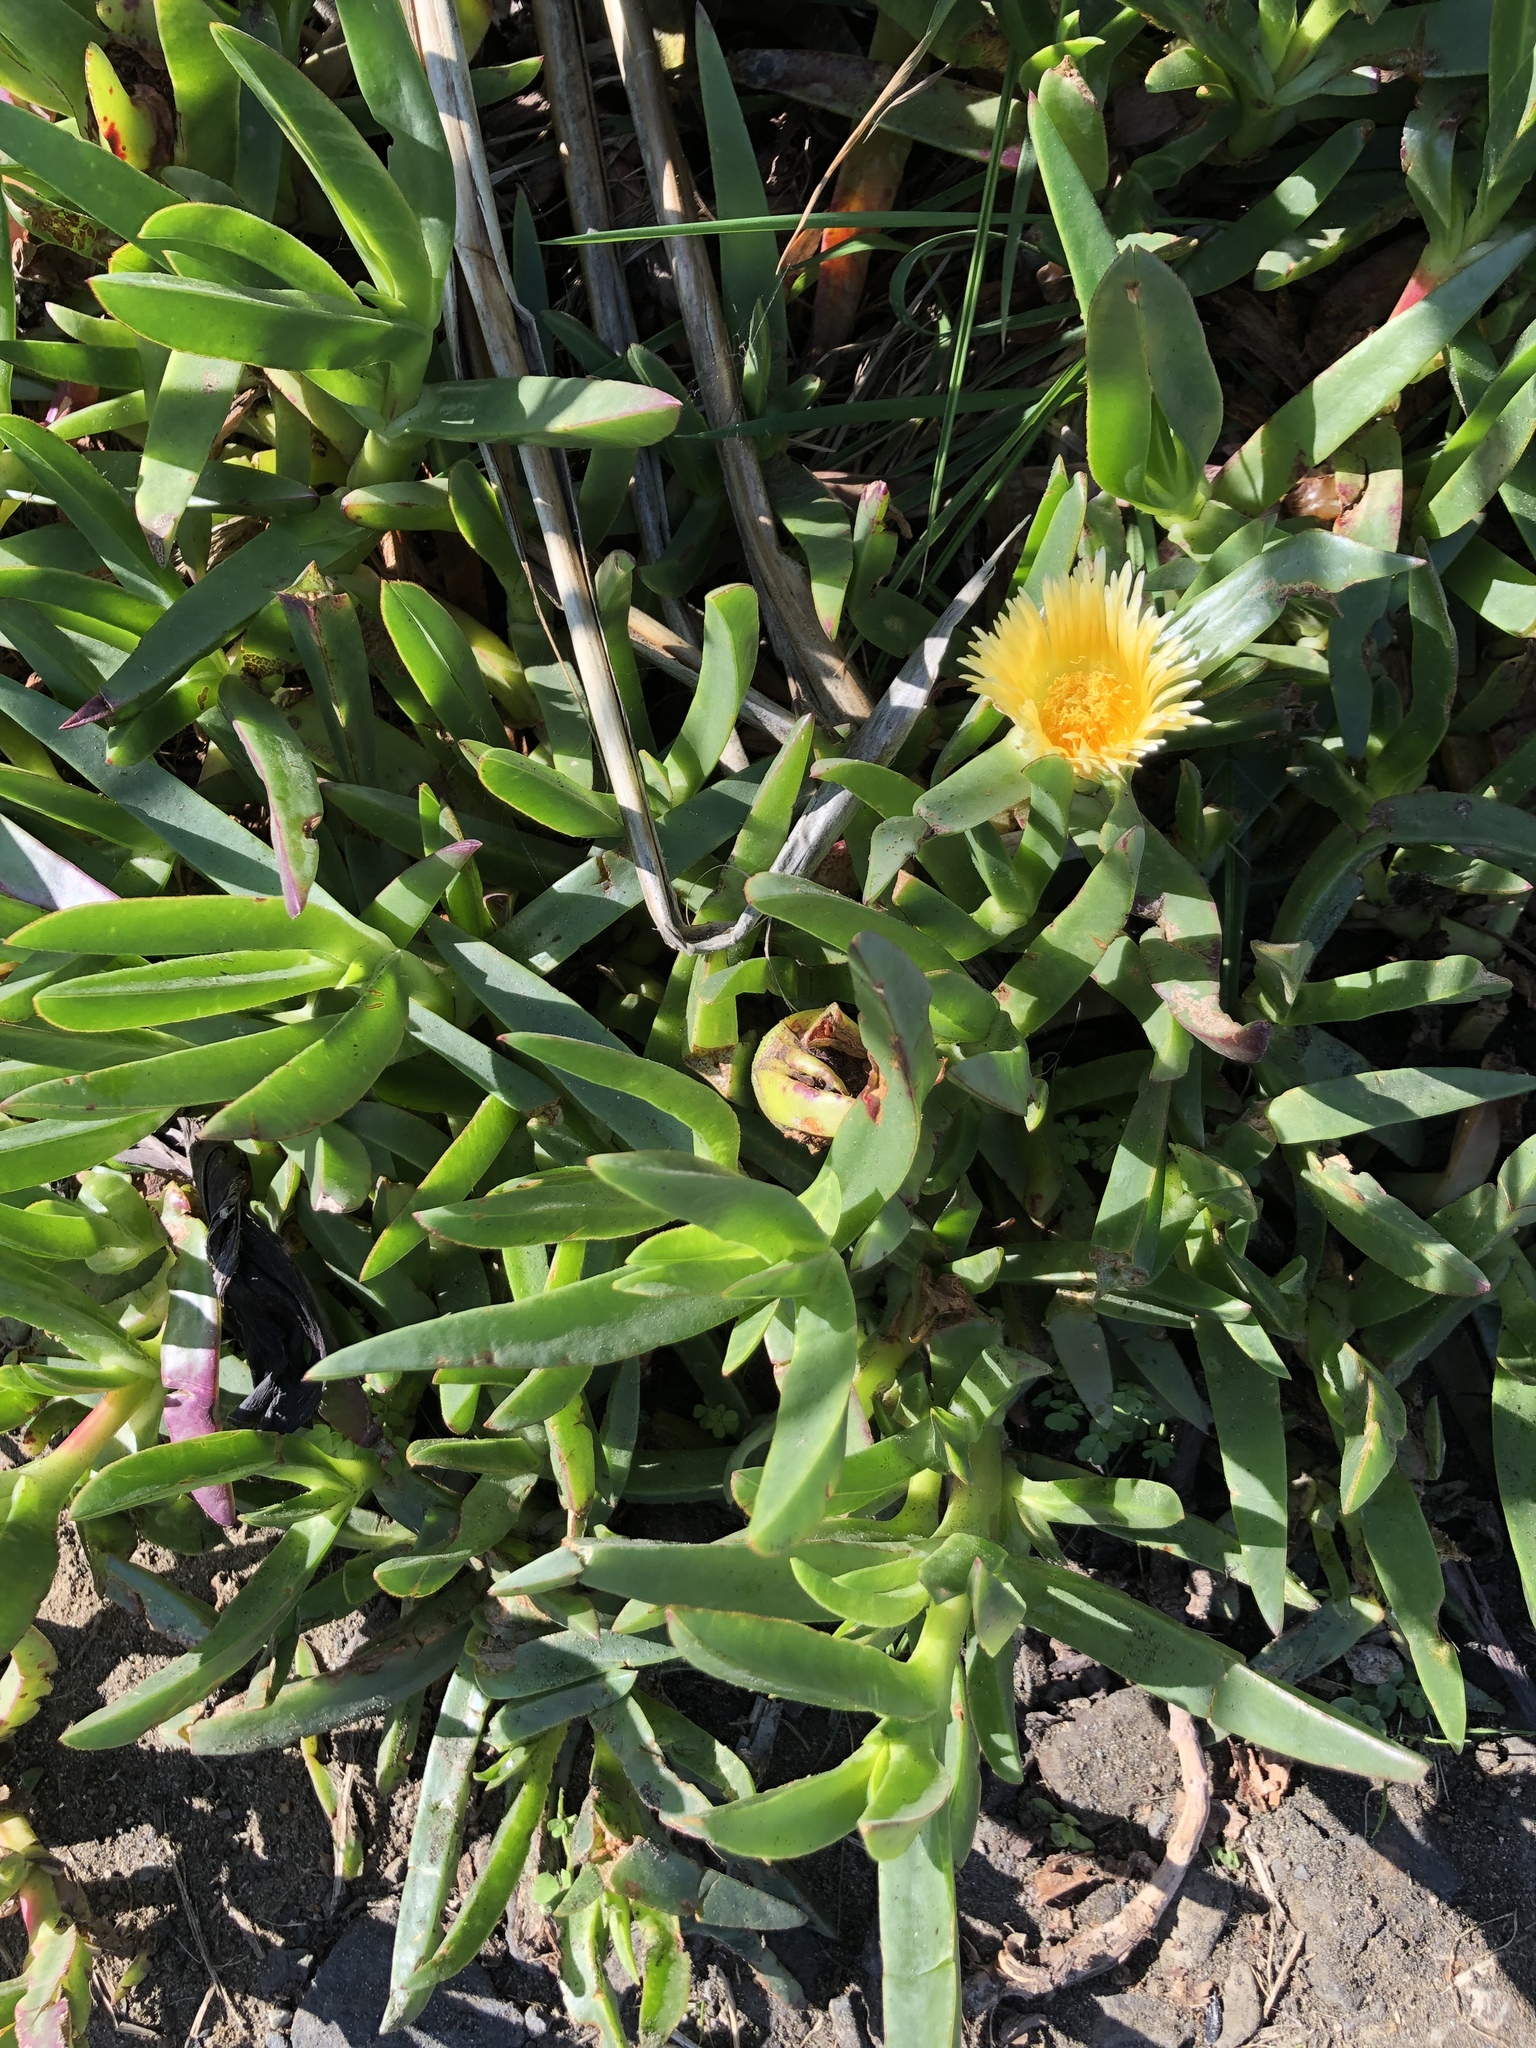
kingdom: Plantae
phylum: Tracheophyta
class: Magnoliopsida
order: Caryophyllales
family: Aizoaceae
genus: Carpobrotus
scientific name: Carpobrotus edulis
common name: Hottentot-fig
